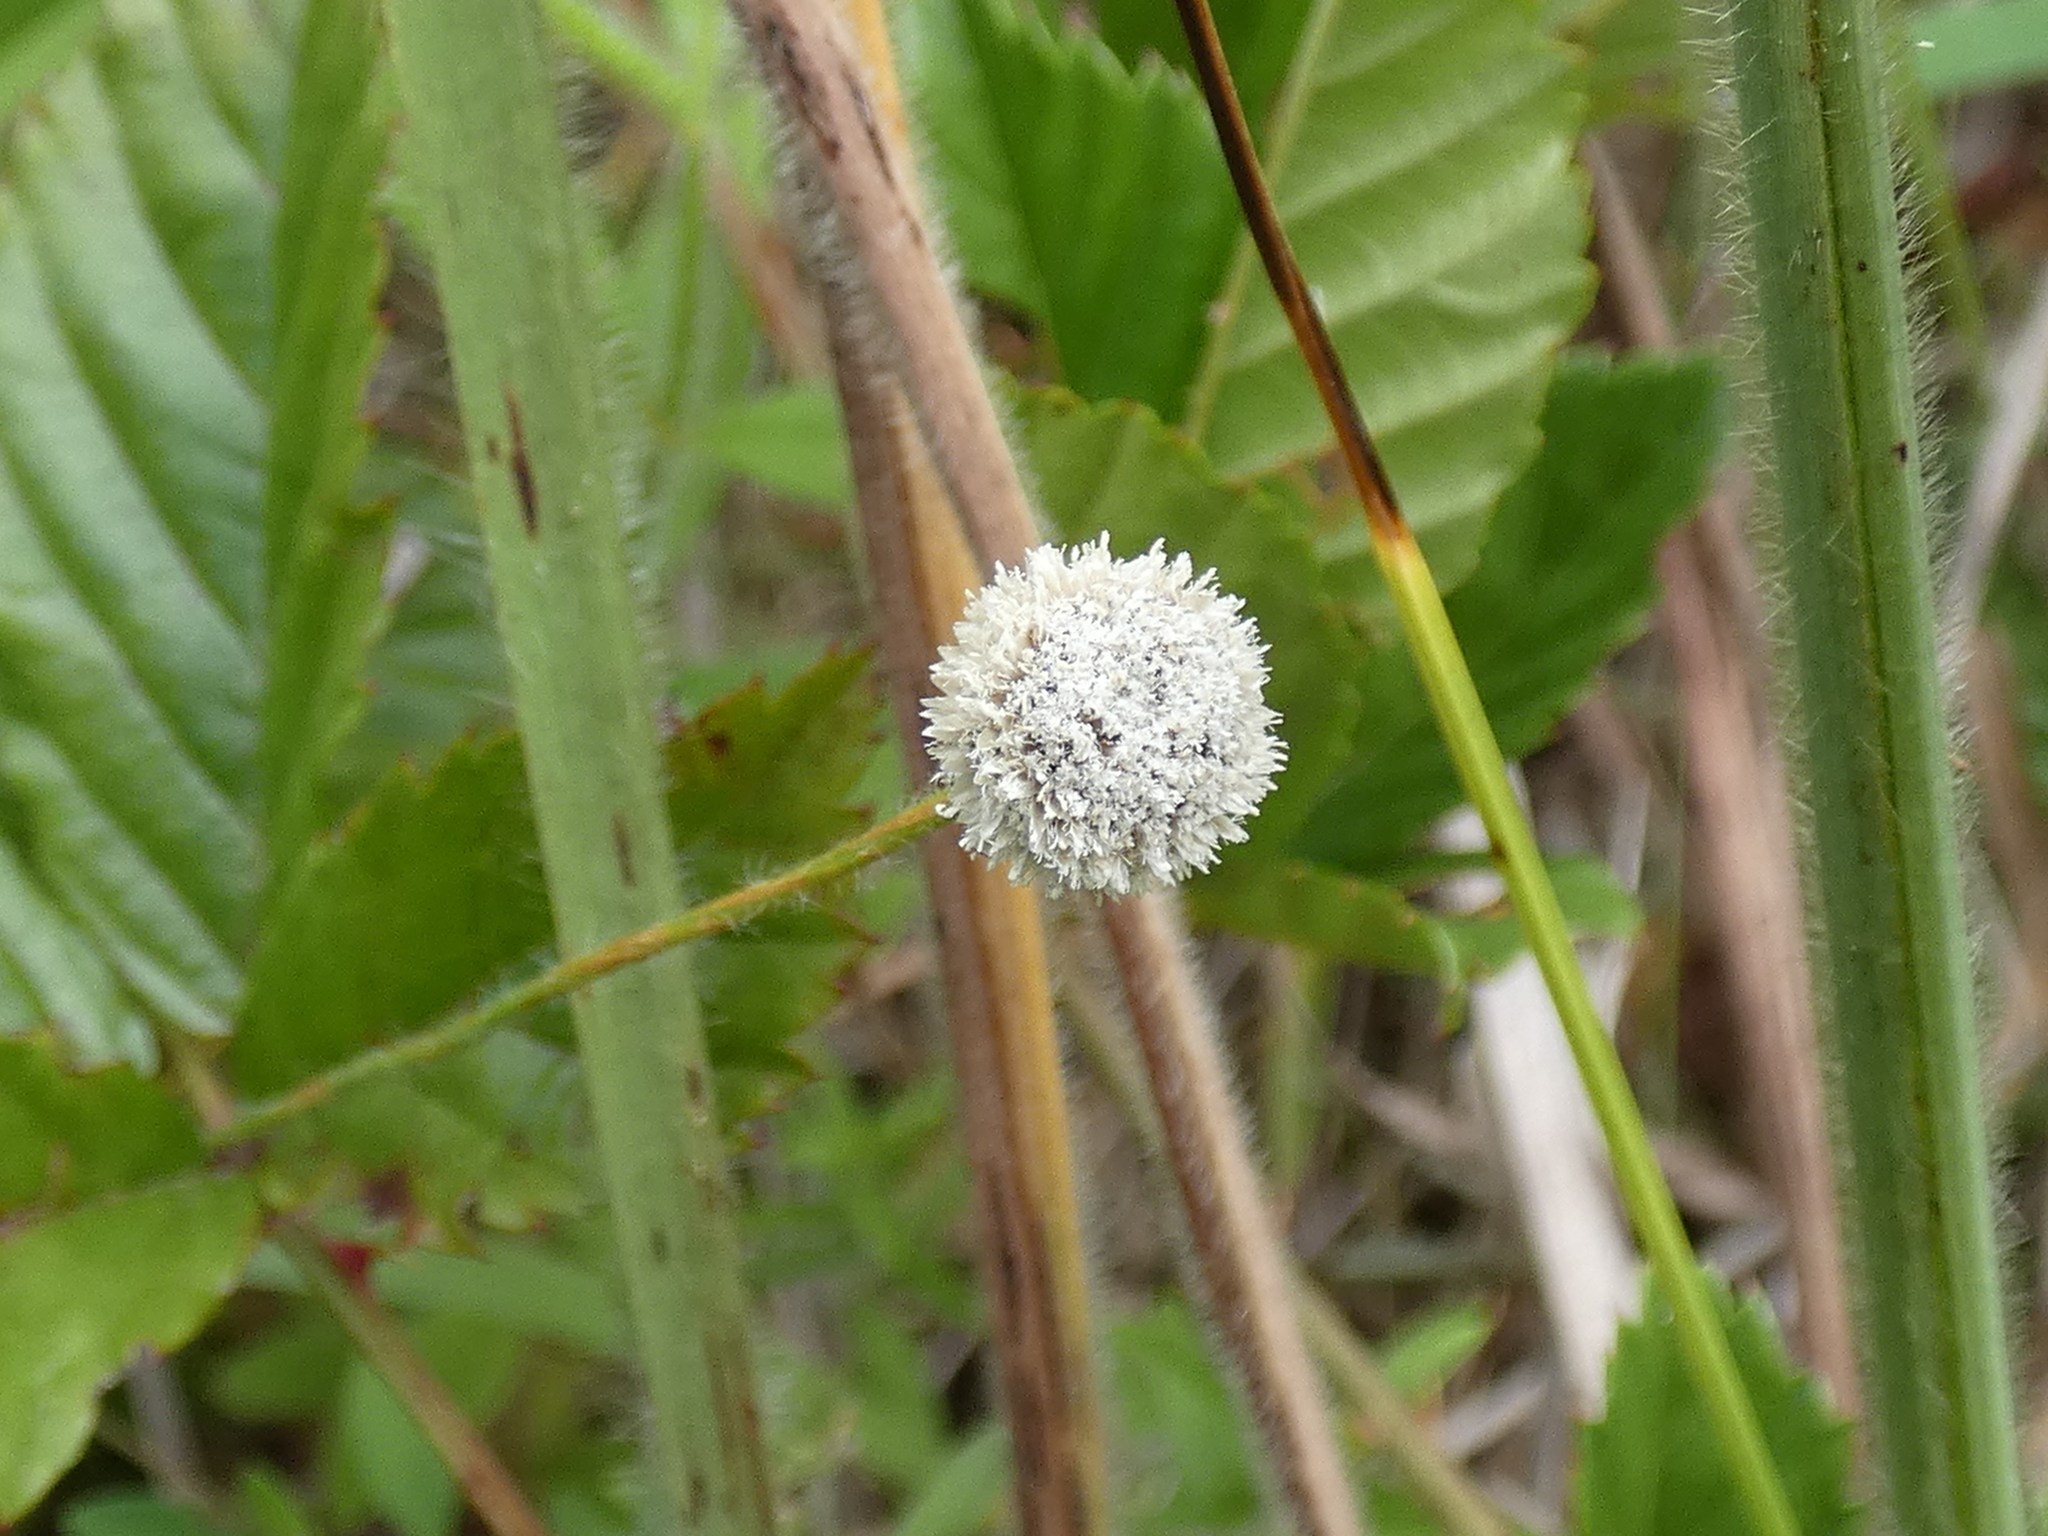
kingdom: Plantae
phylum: Tracheophyta
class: Liliopsida
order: Poales
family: Eriocaulaceae
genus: Paepalanthus
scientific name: Paepalanthus anceps
